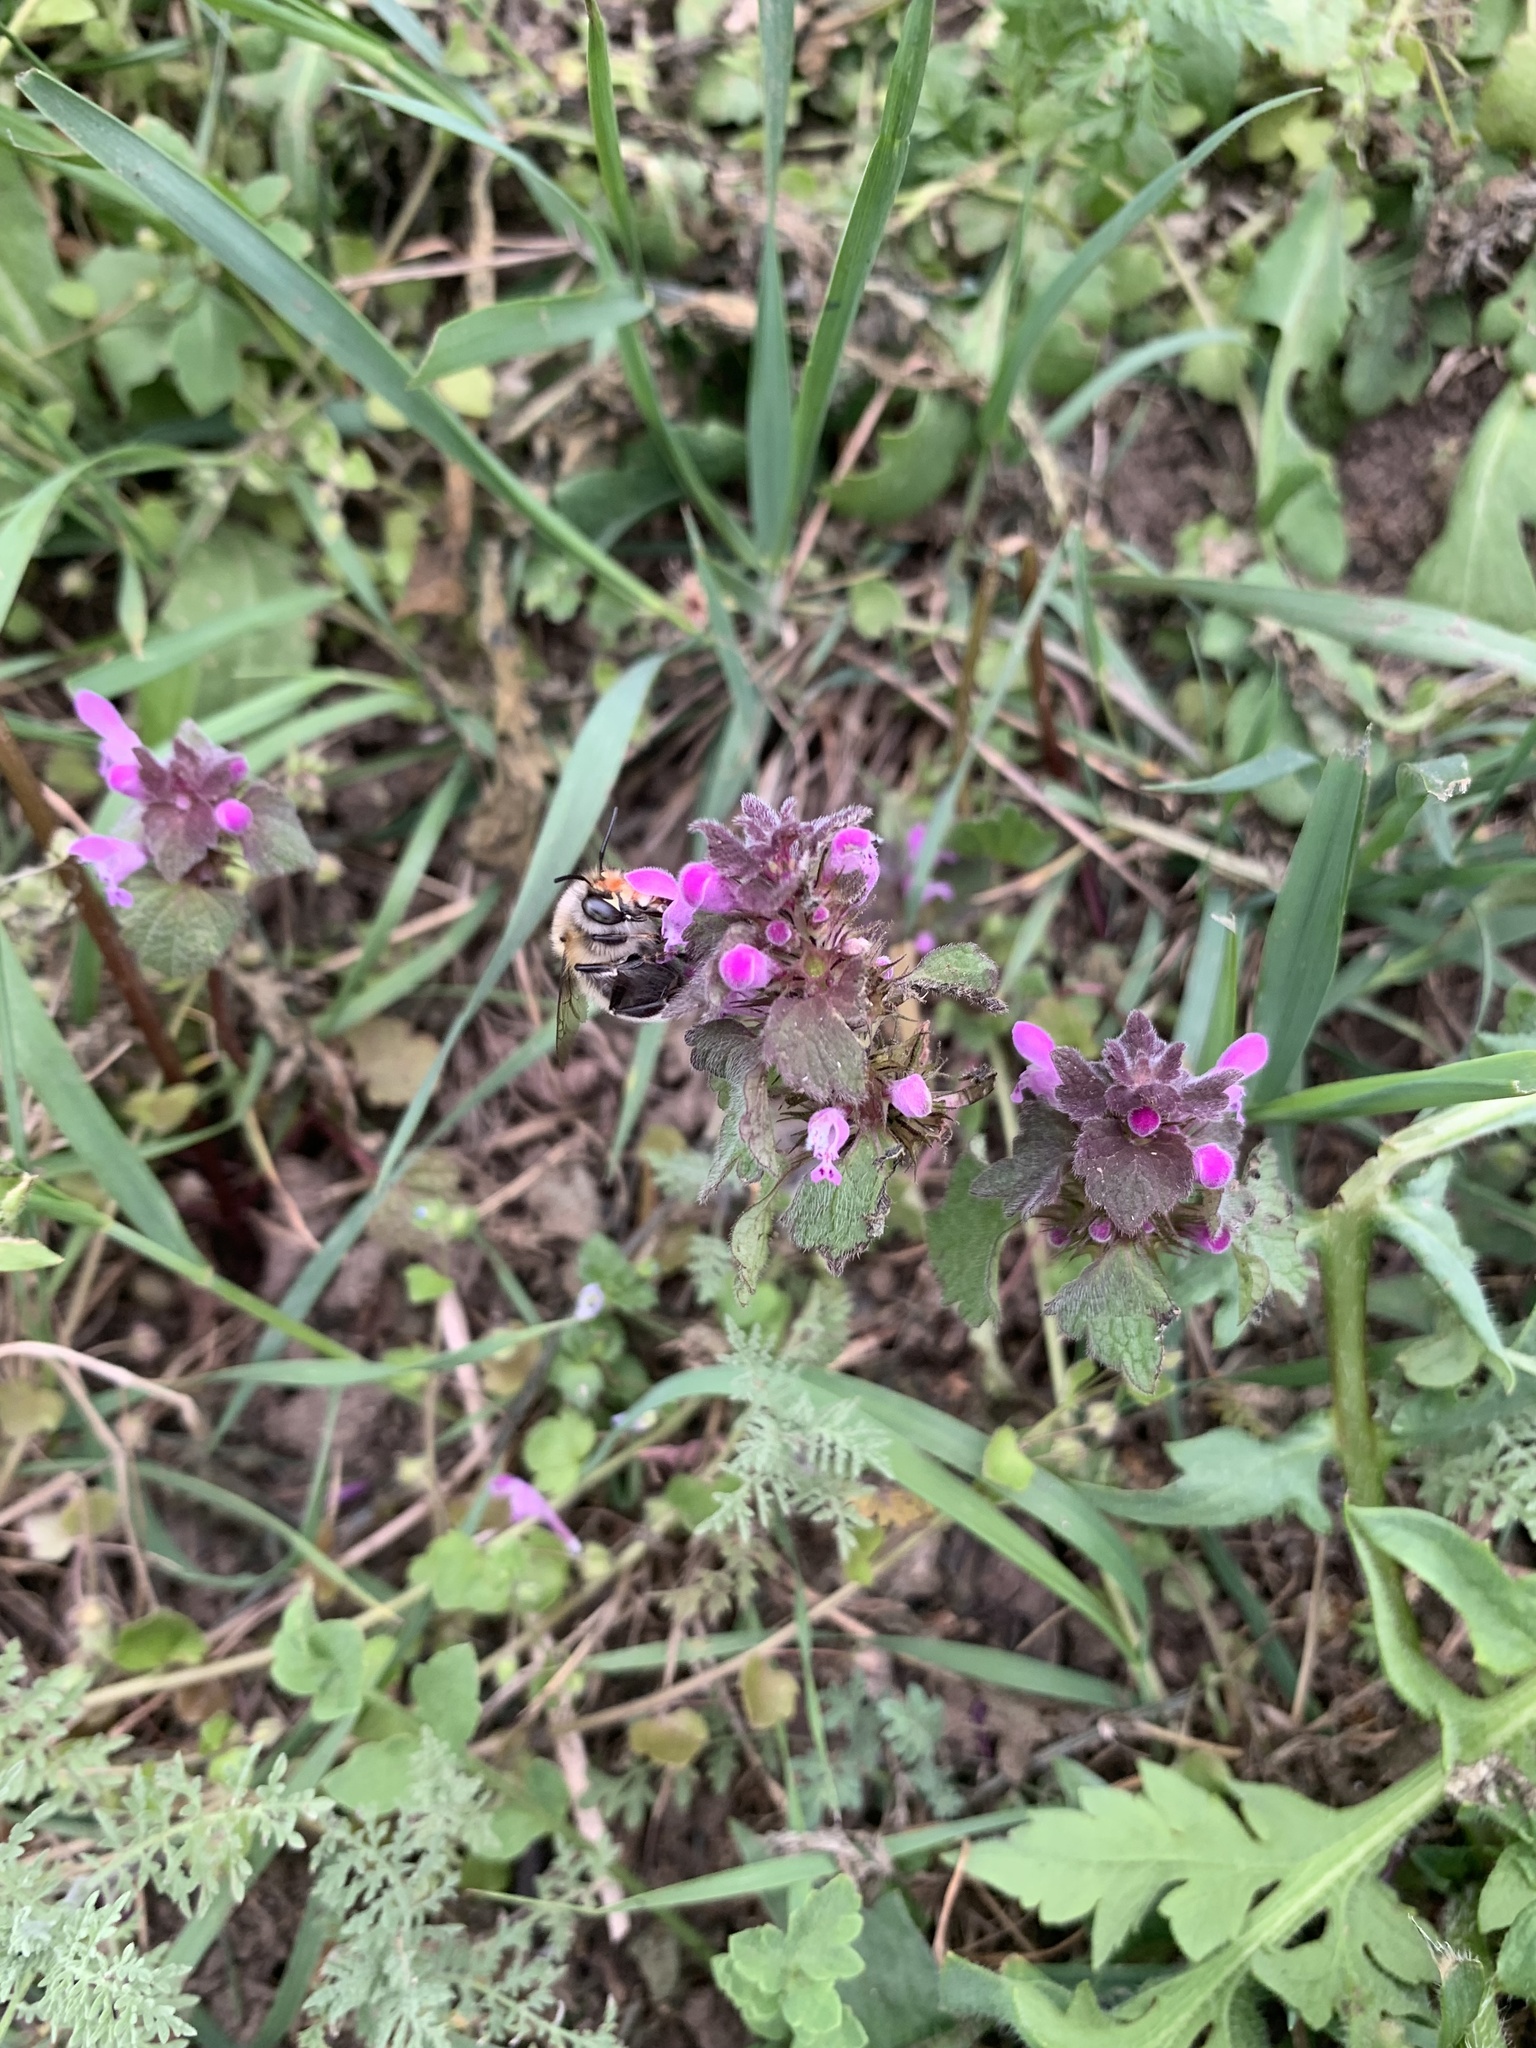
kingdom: Animalia
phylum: Arthropoda
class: Insecta
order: Hymenoptera
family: Apidae
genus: Anthophora
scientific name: Anthophora plumipes
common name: Hairy-footed flower bee
